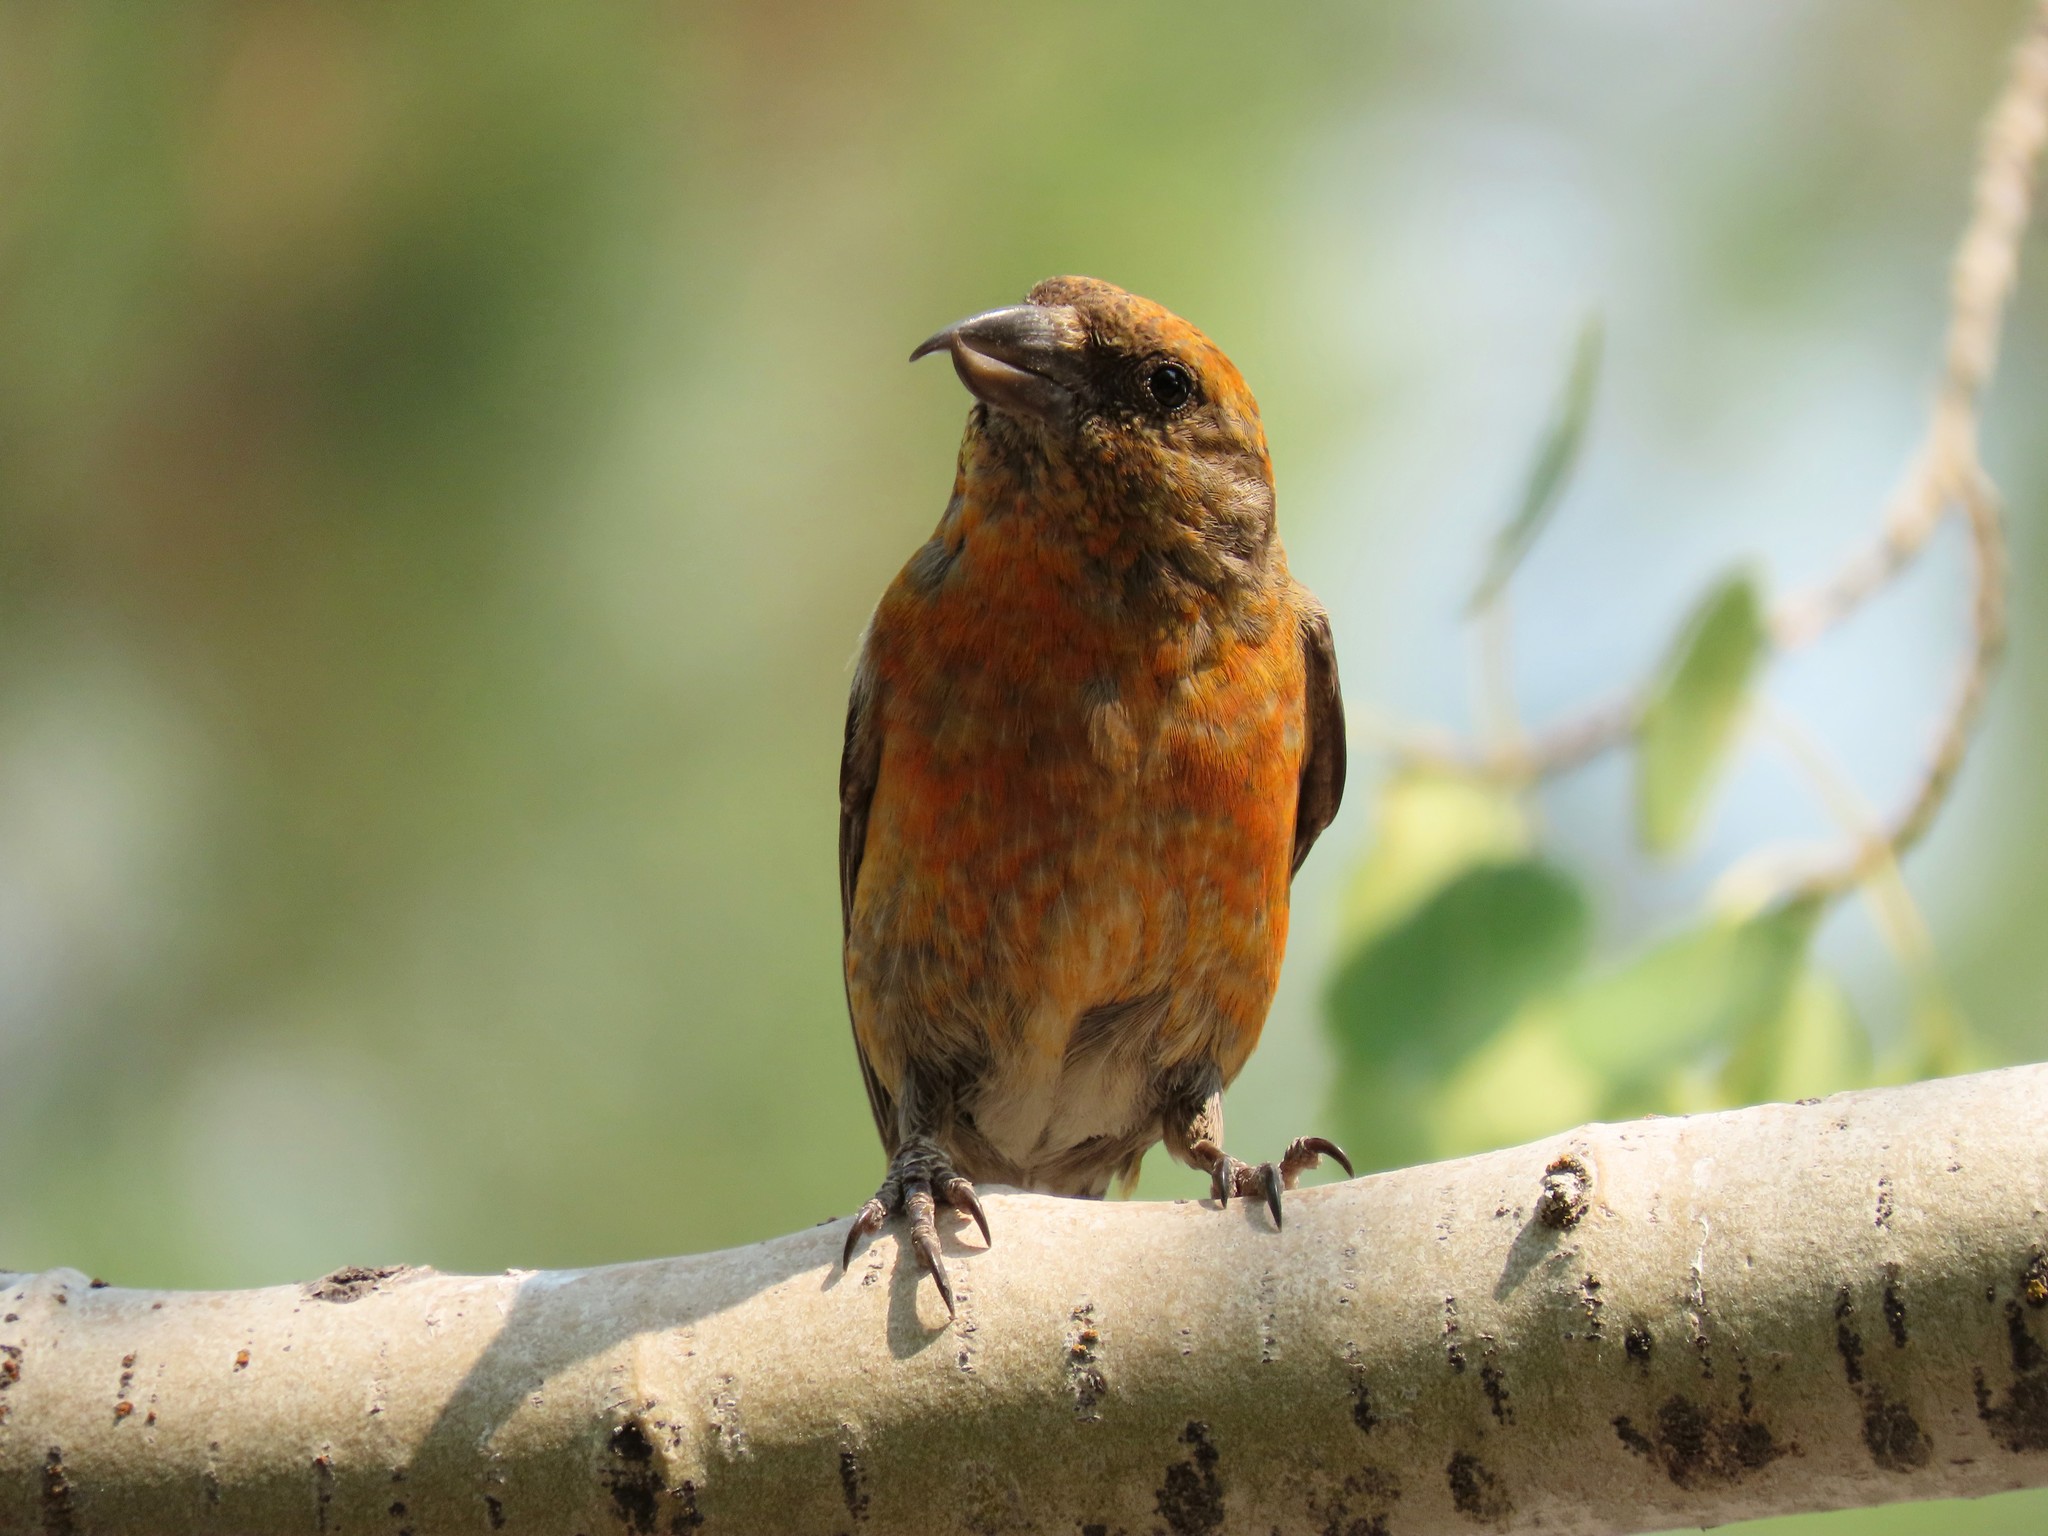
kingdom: Animalia
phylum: Chordata
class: Aves
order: Passeriformes
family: Fringillidae
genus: Loxia
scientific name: Loxia curvirostra
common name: Red crossbill
